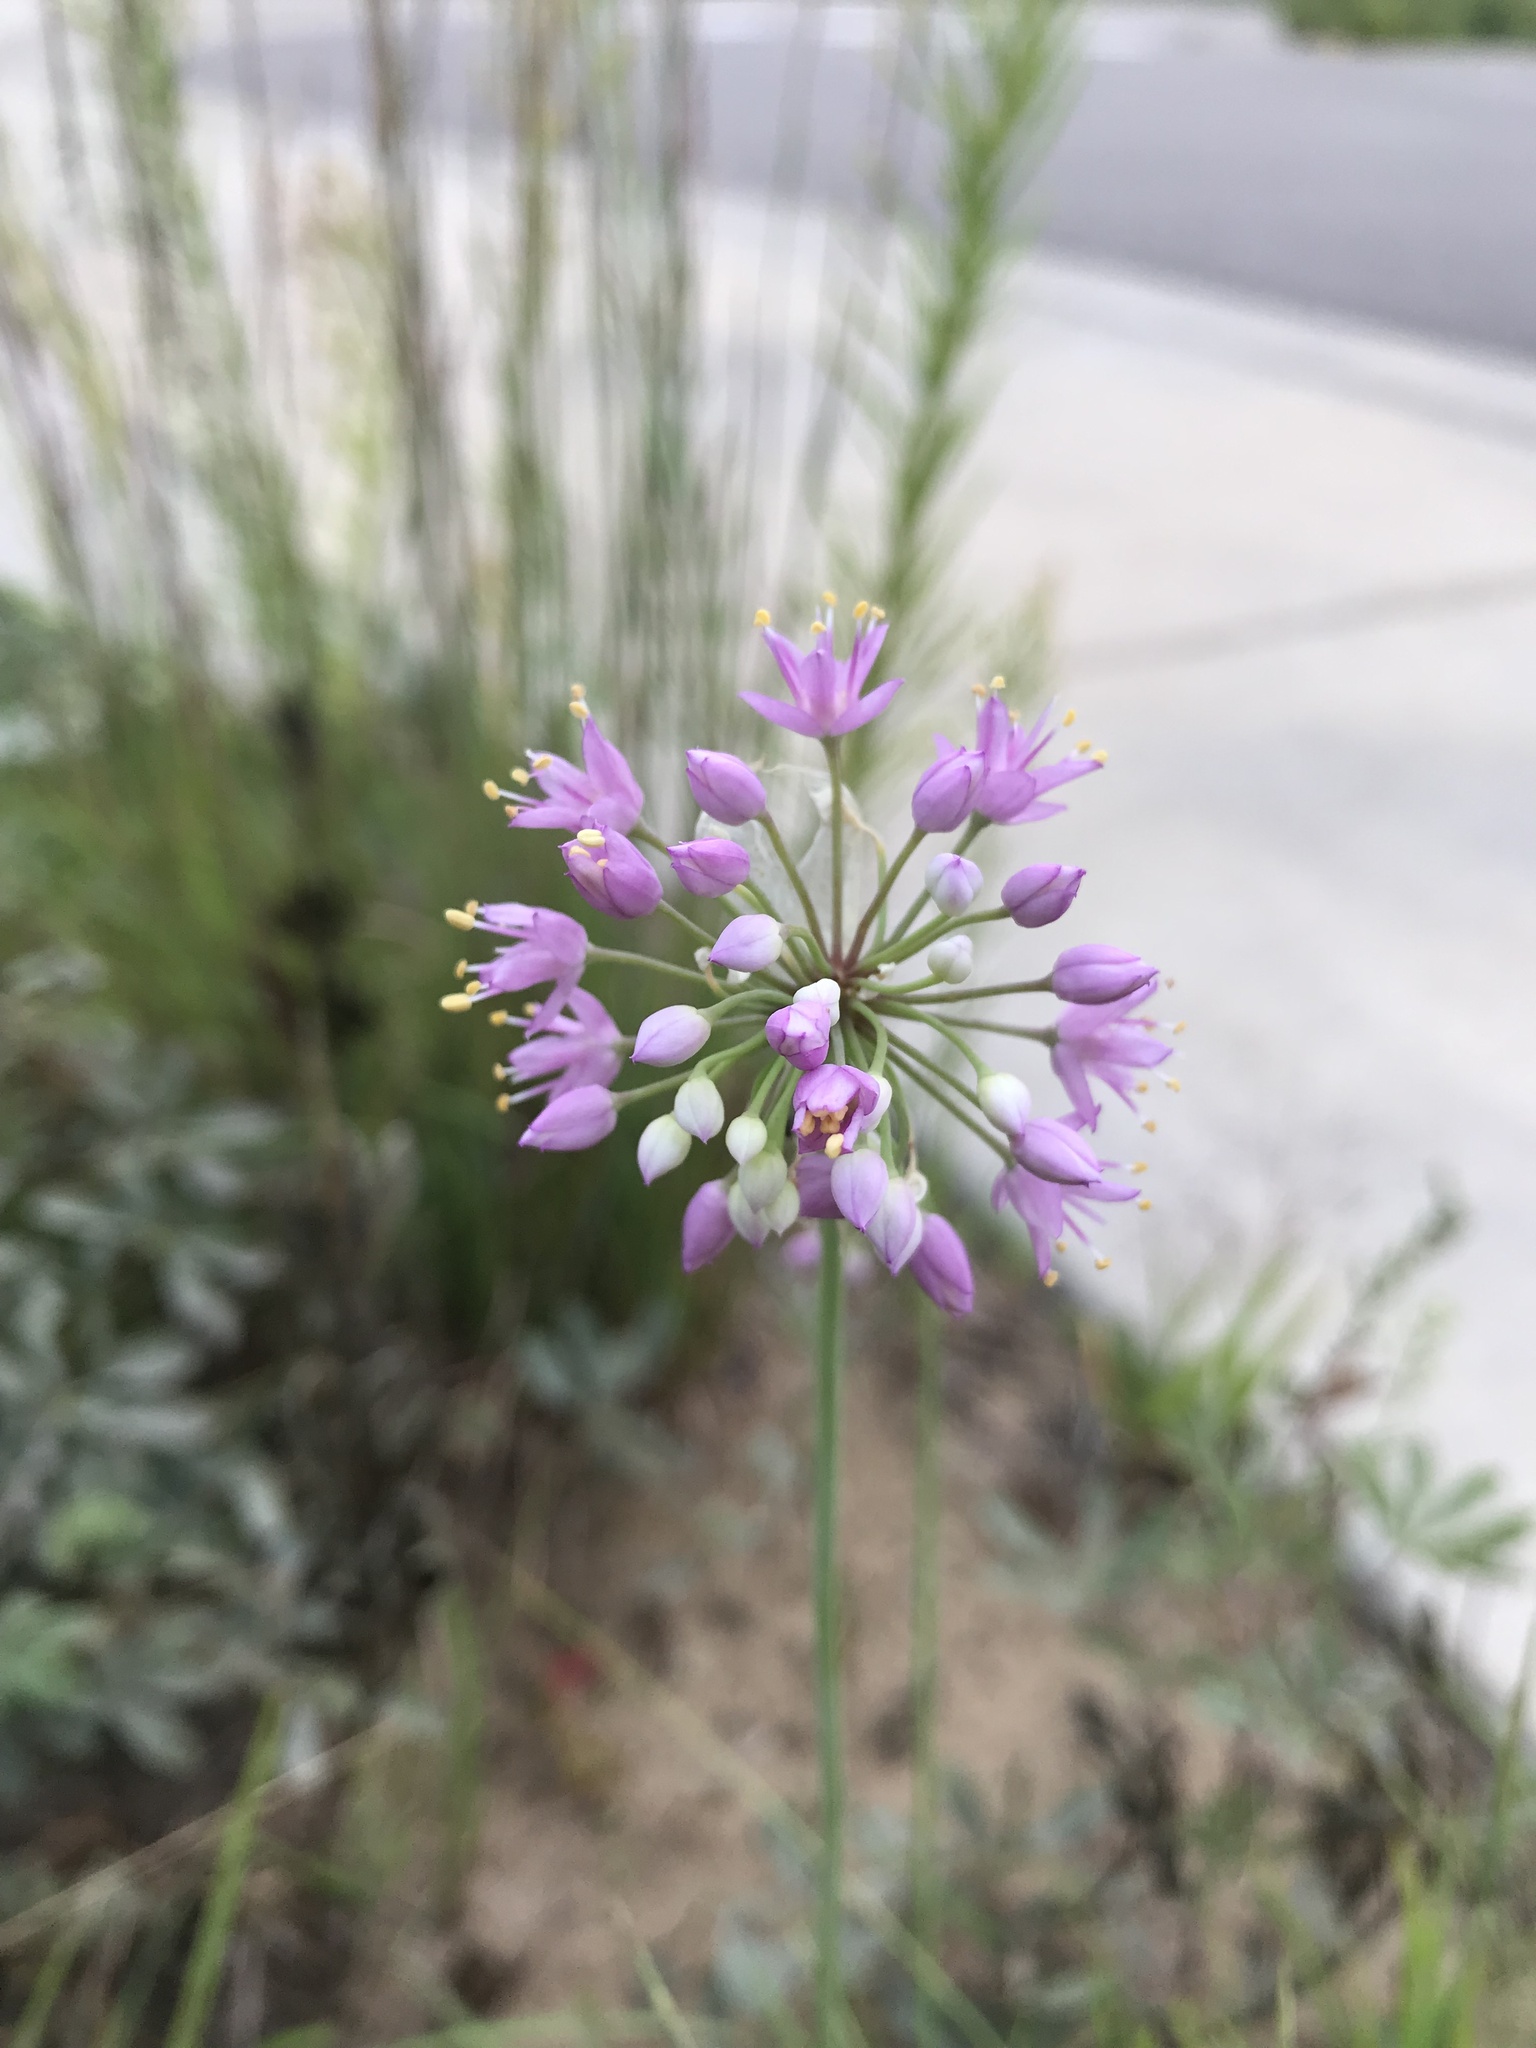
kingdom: Plantae
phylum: Tracheophyta
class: Liliopsida
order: Asparagales
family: Amaryllidaceae
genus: Allium
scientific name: Allium stellatum
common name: Autumn onion
